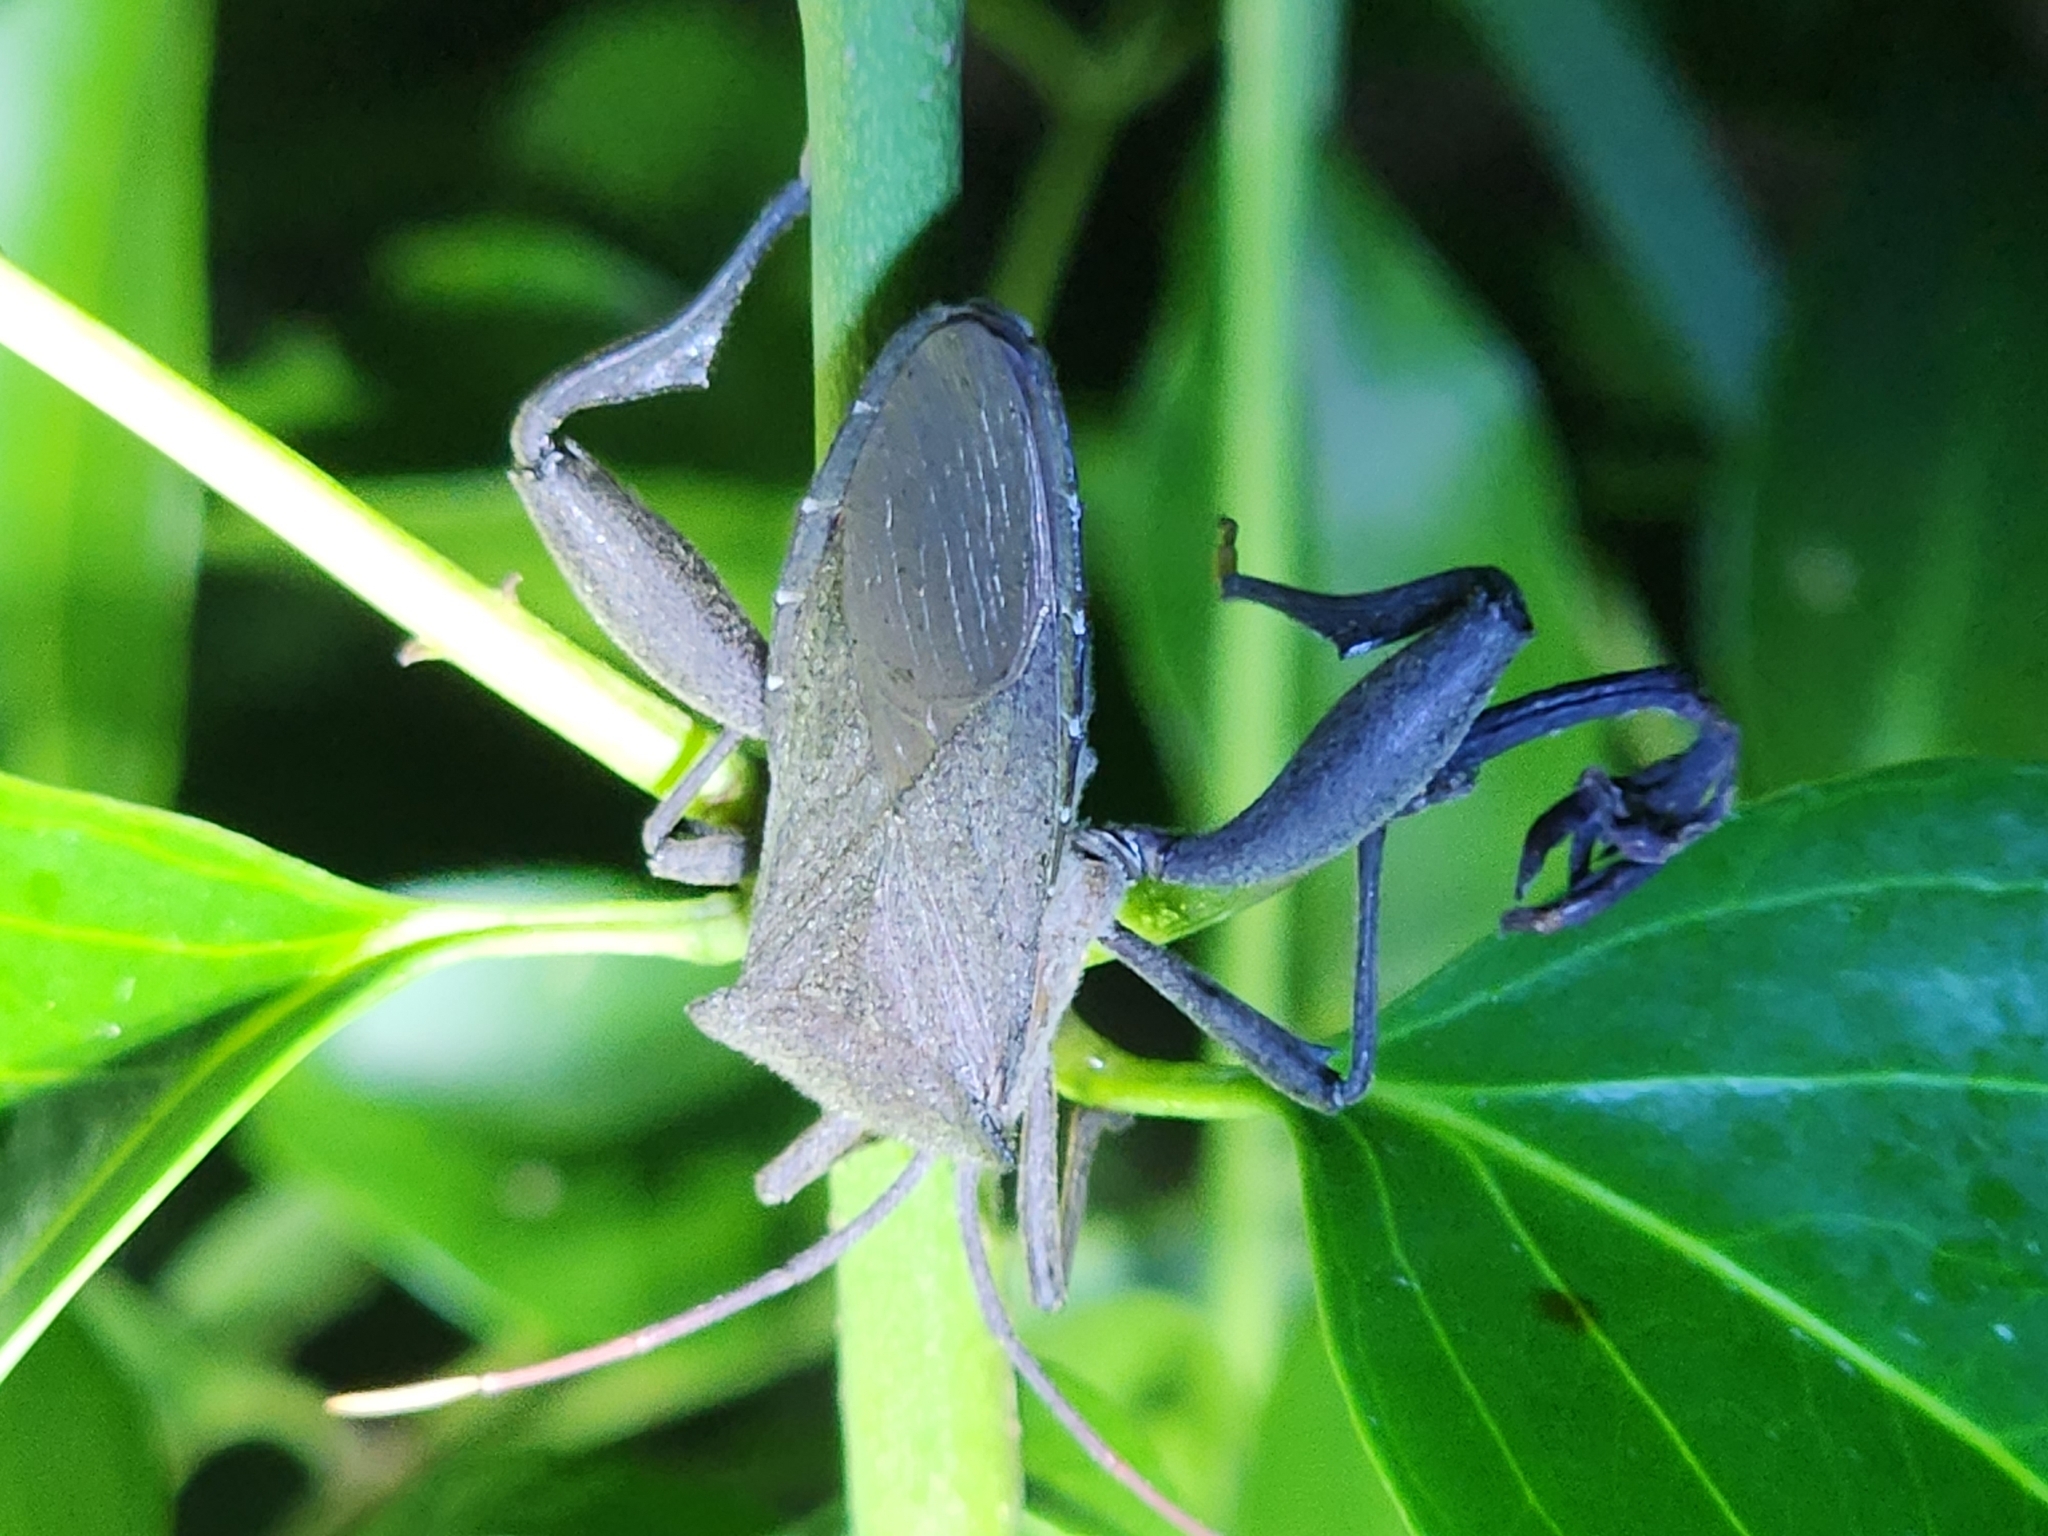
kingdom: Animalia
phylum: Arthropoda
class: Insecta
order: Hemiptera
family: Coreidae
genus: Mictis
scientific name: Mictis difficilis
